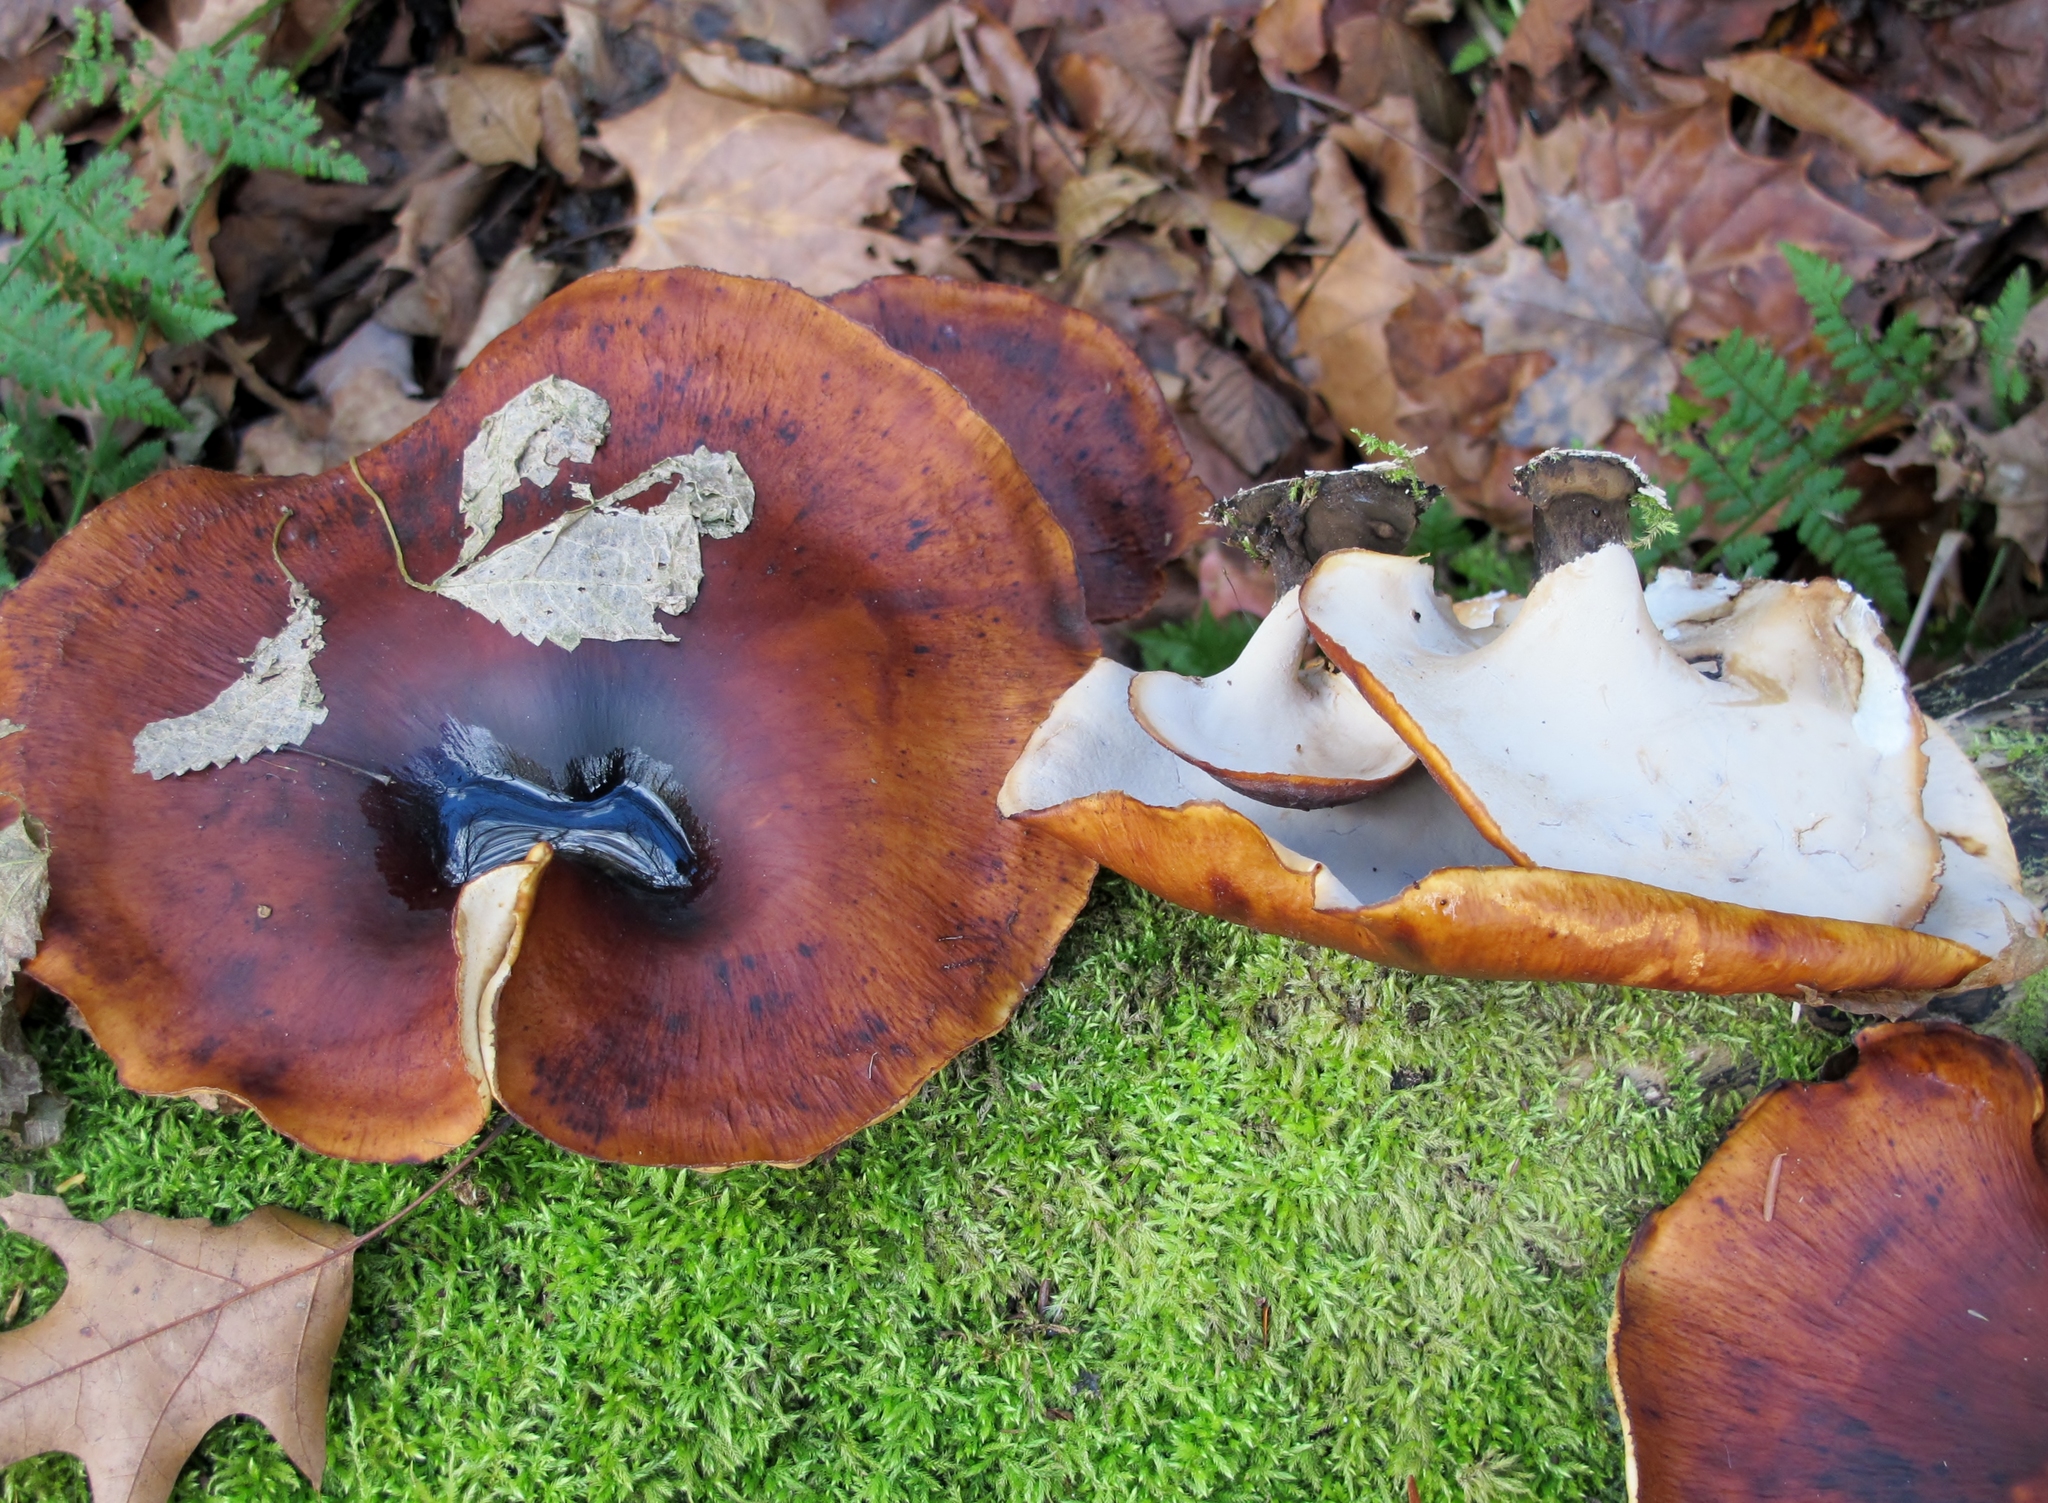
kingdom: Fungi
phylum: Basidiomycota
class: Agaricomycetes
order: Polyporales
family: Polyporaceae
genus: Picipes
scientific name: Picipes badius
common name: Bay polypore
